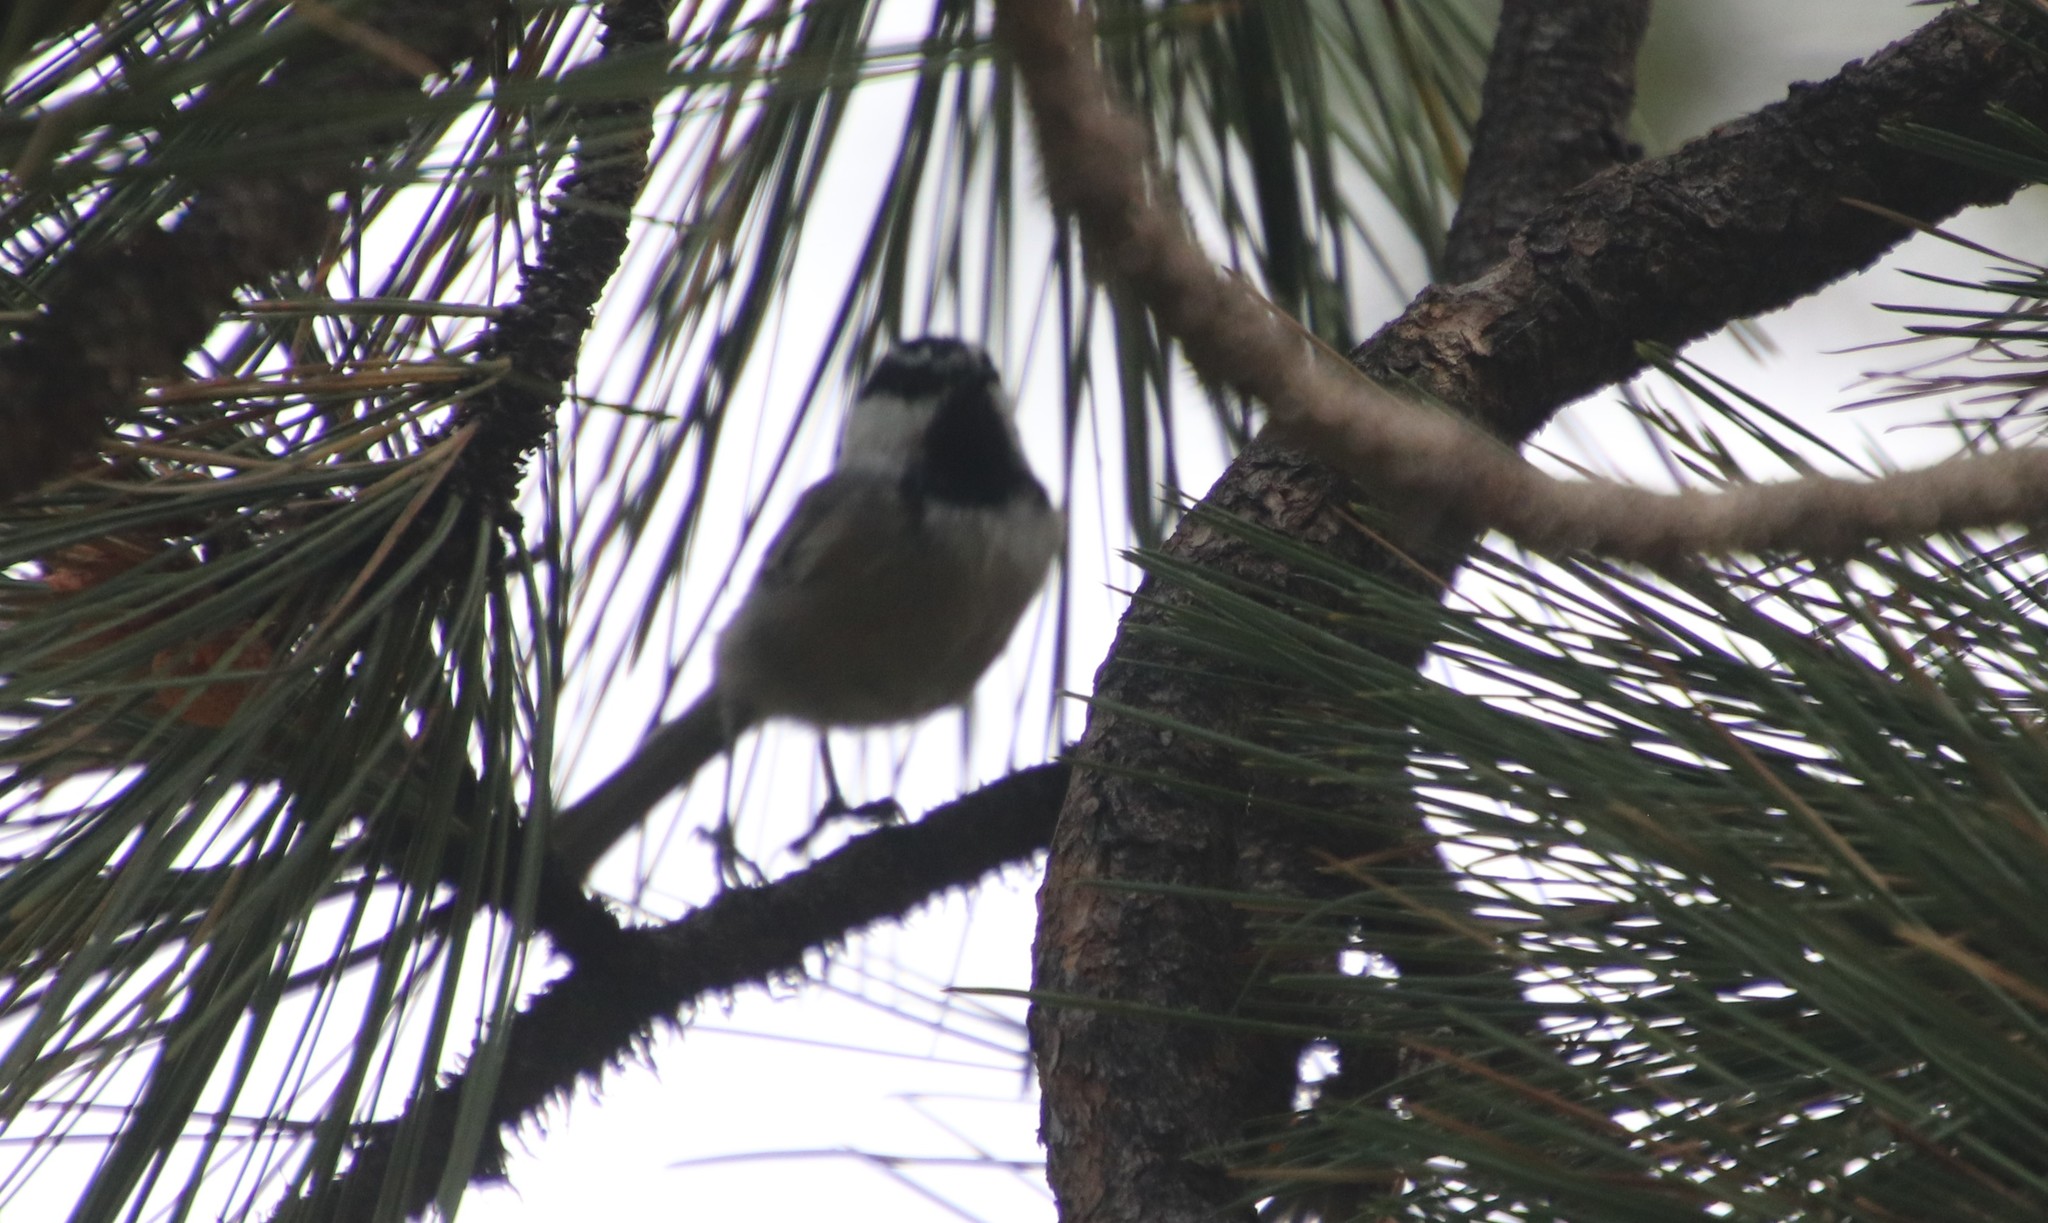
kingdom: Animalia
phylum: Chordata
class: Aves
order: Passeriformes
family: Paridae
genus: Poecile
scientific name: Poecile gambeli
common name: Mountain chickadee
